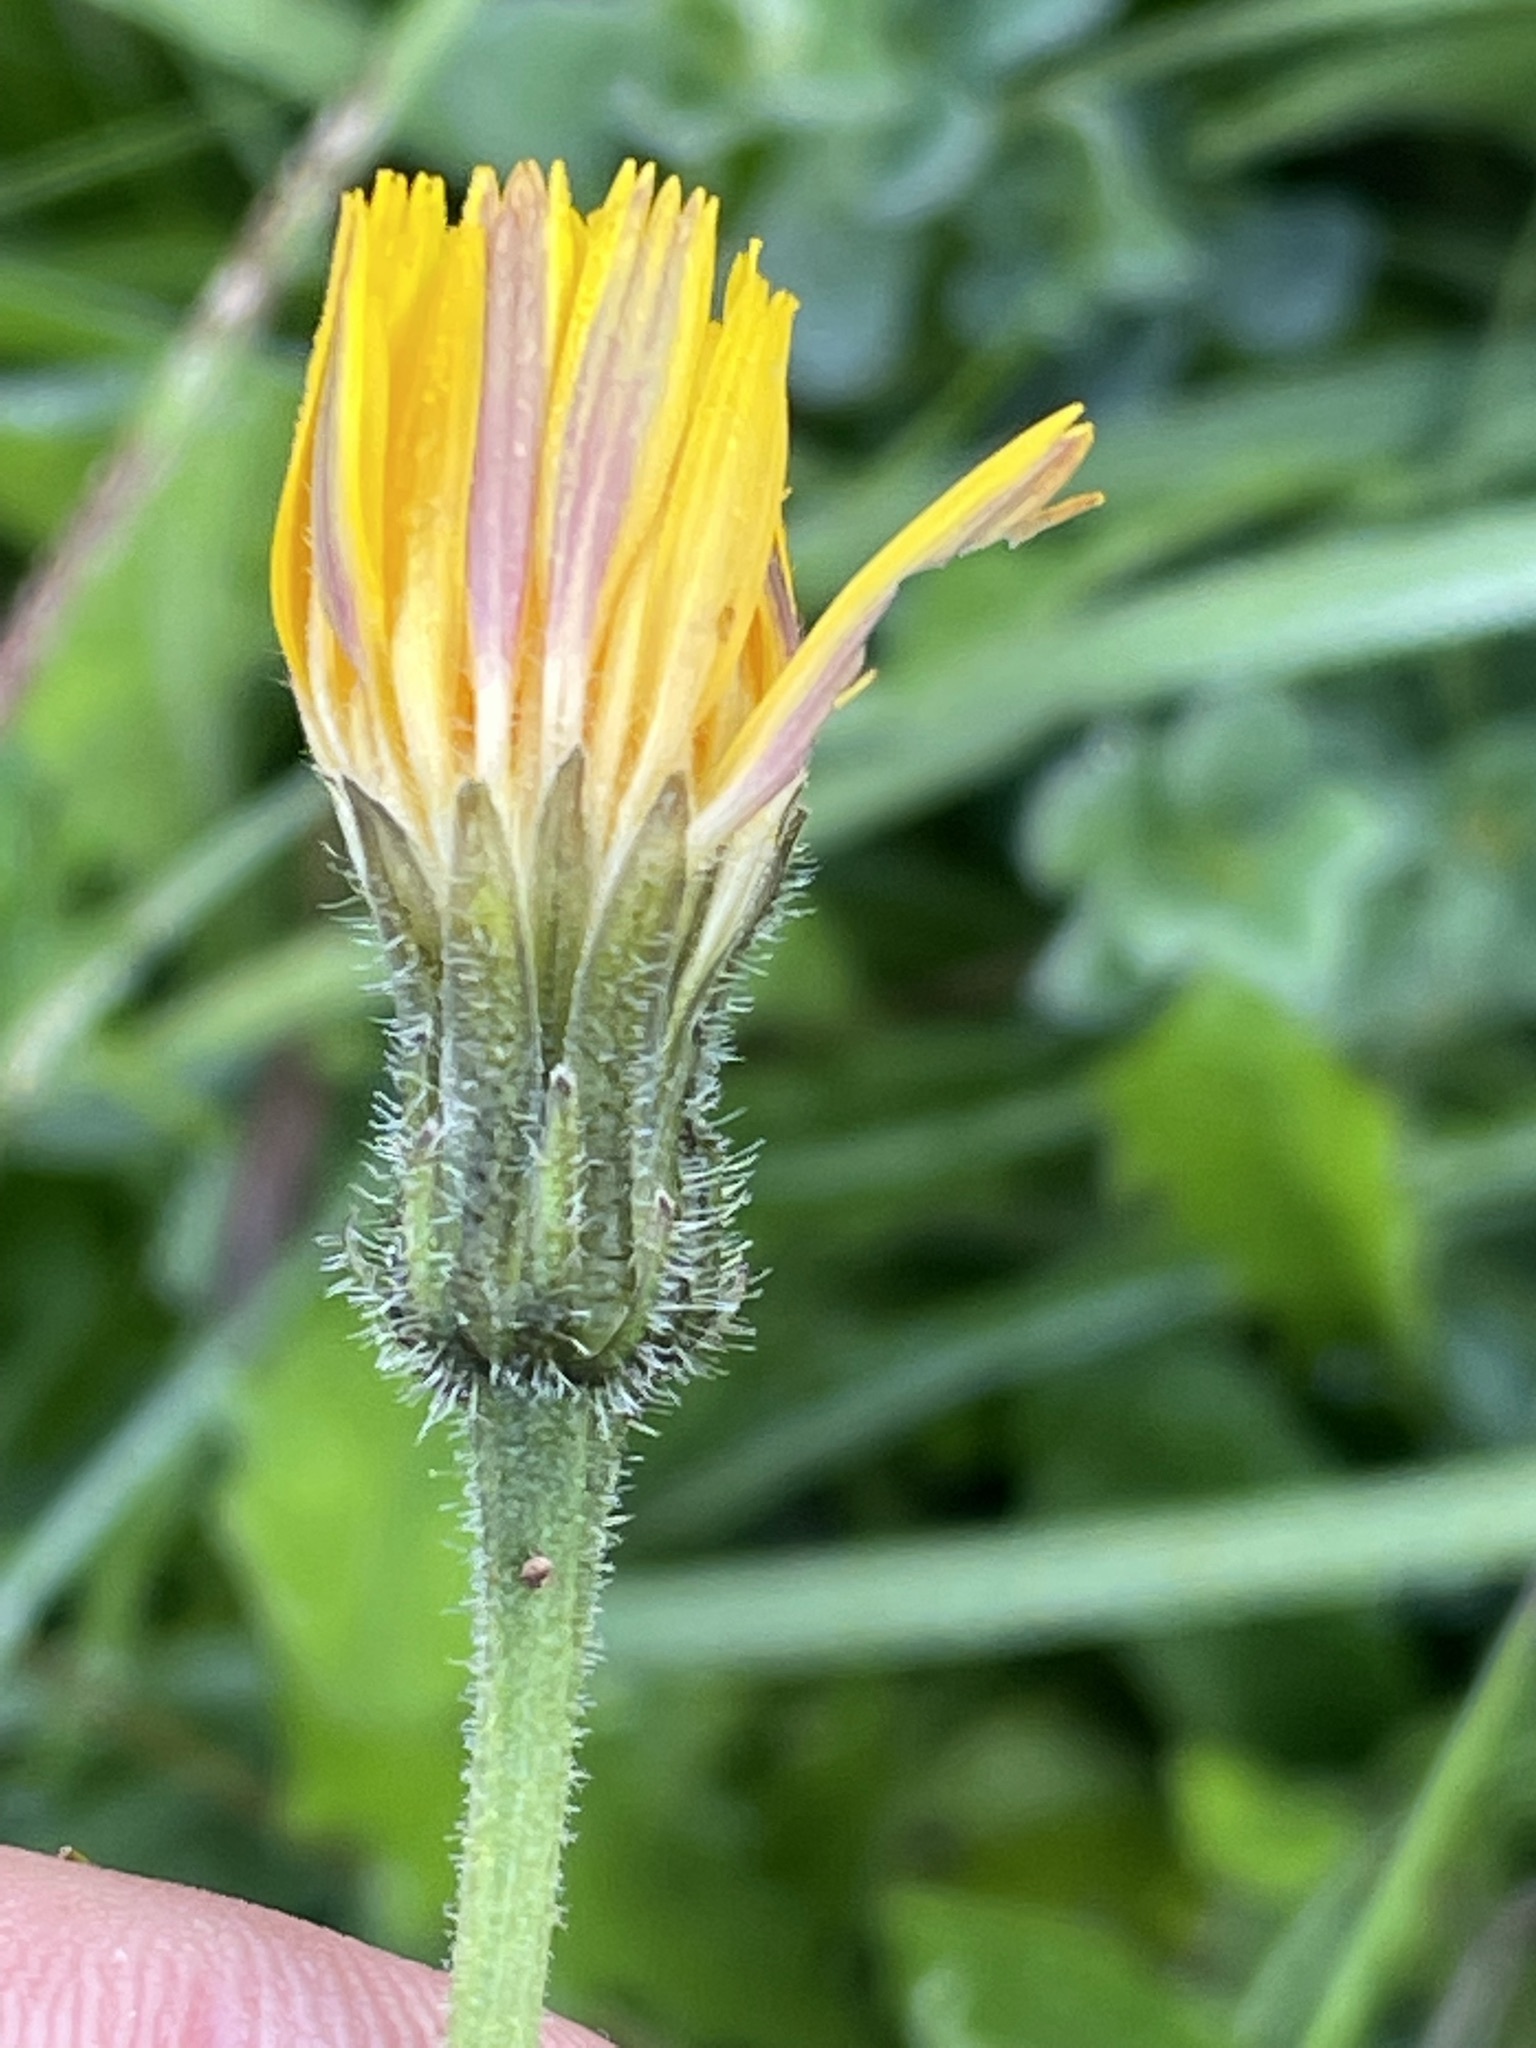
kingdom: Plantae
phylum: Tracheophyta
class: Magnoliopsida
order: Asterales
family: Asteraceae
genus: Leontodon
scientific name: Leontodon hispidus
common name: Rough hawkbit
